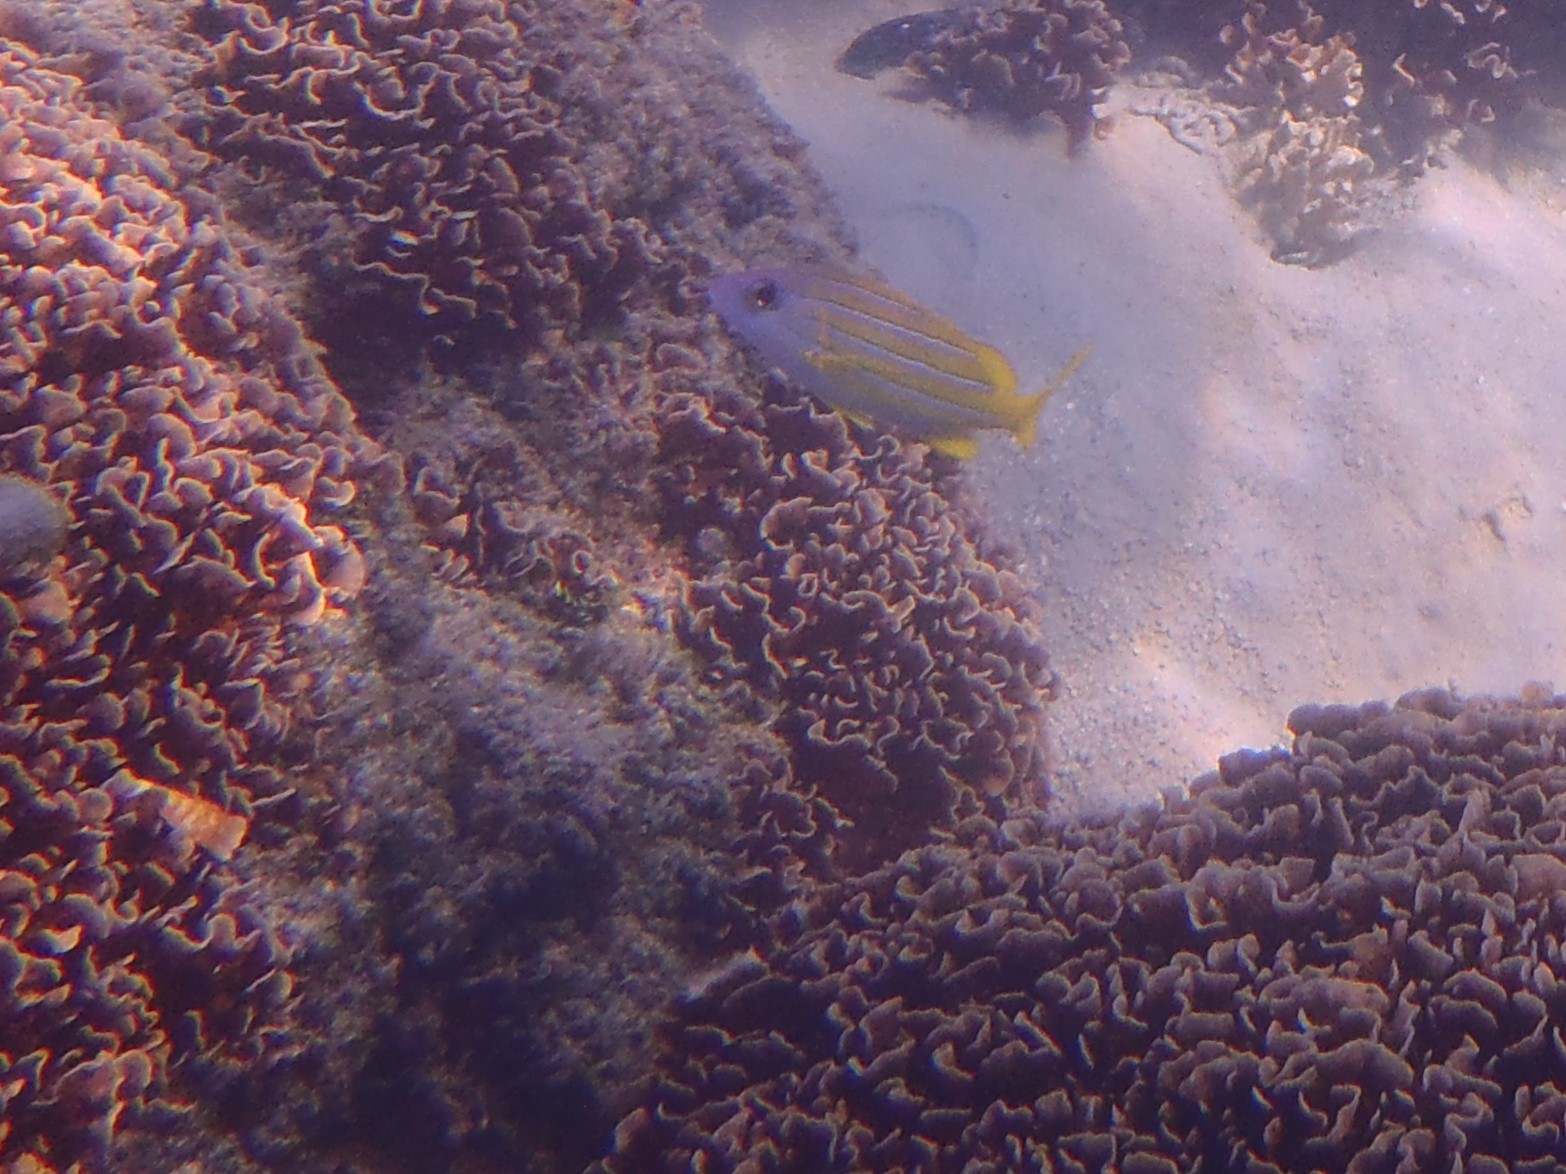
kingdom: Animalia
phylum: Chordata
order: Perciformes
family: Lutjanidae
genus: Lutjanus
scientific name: Lutjanus kasmira
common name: Common bluestripe snapper
